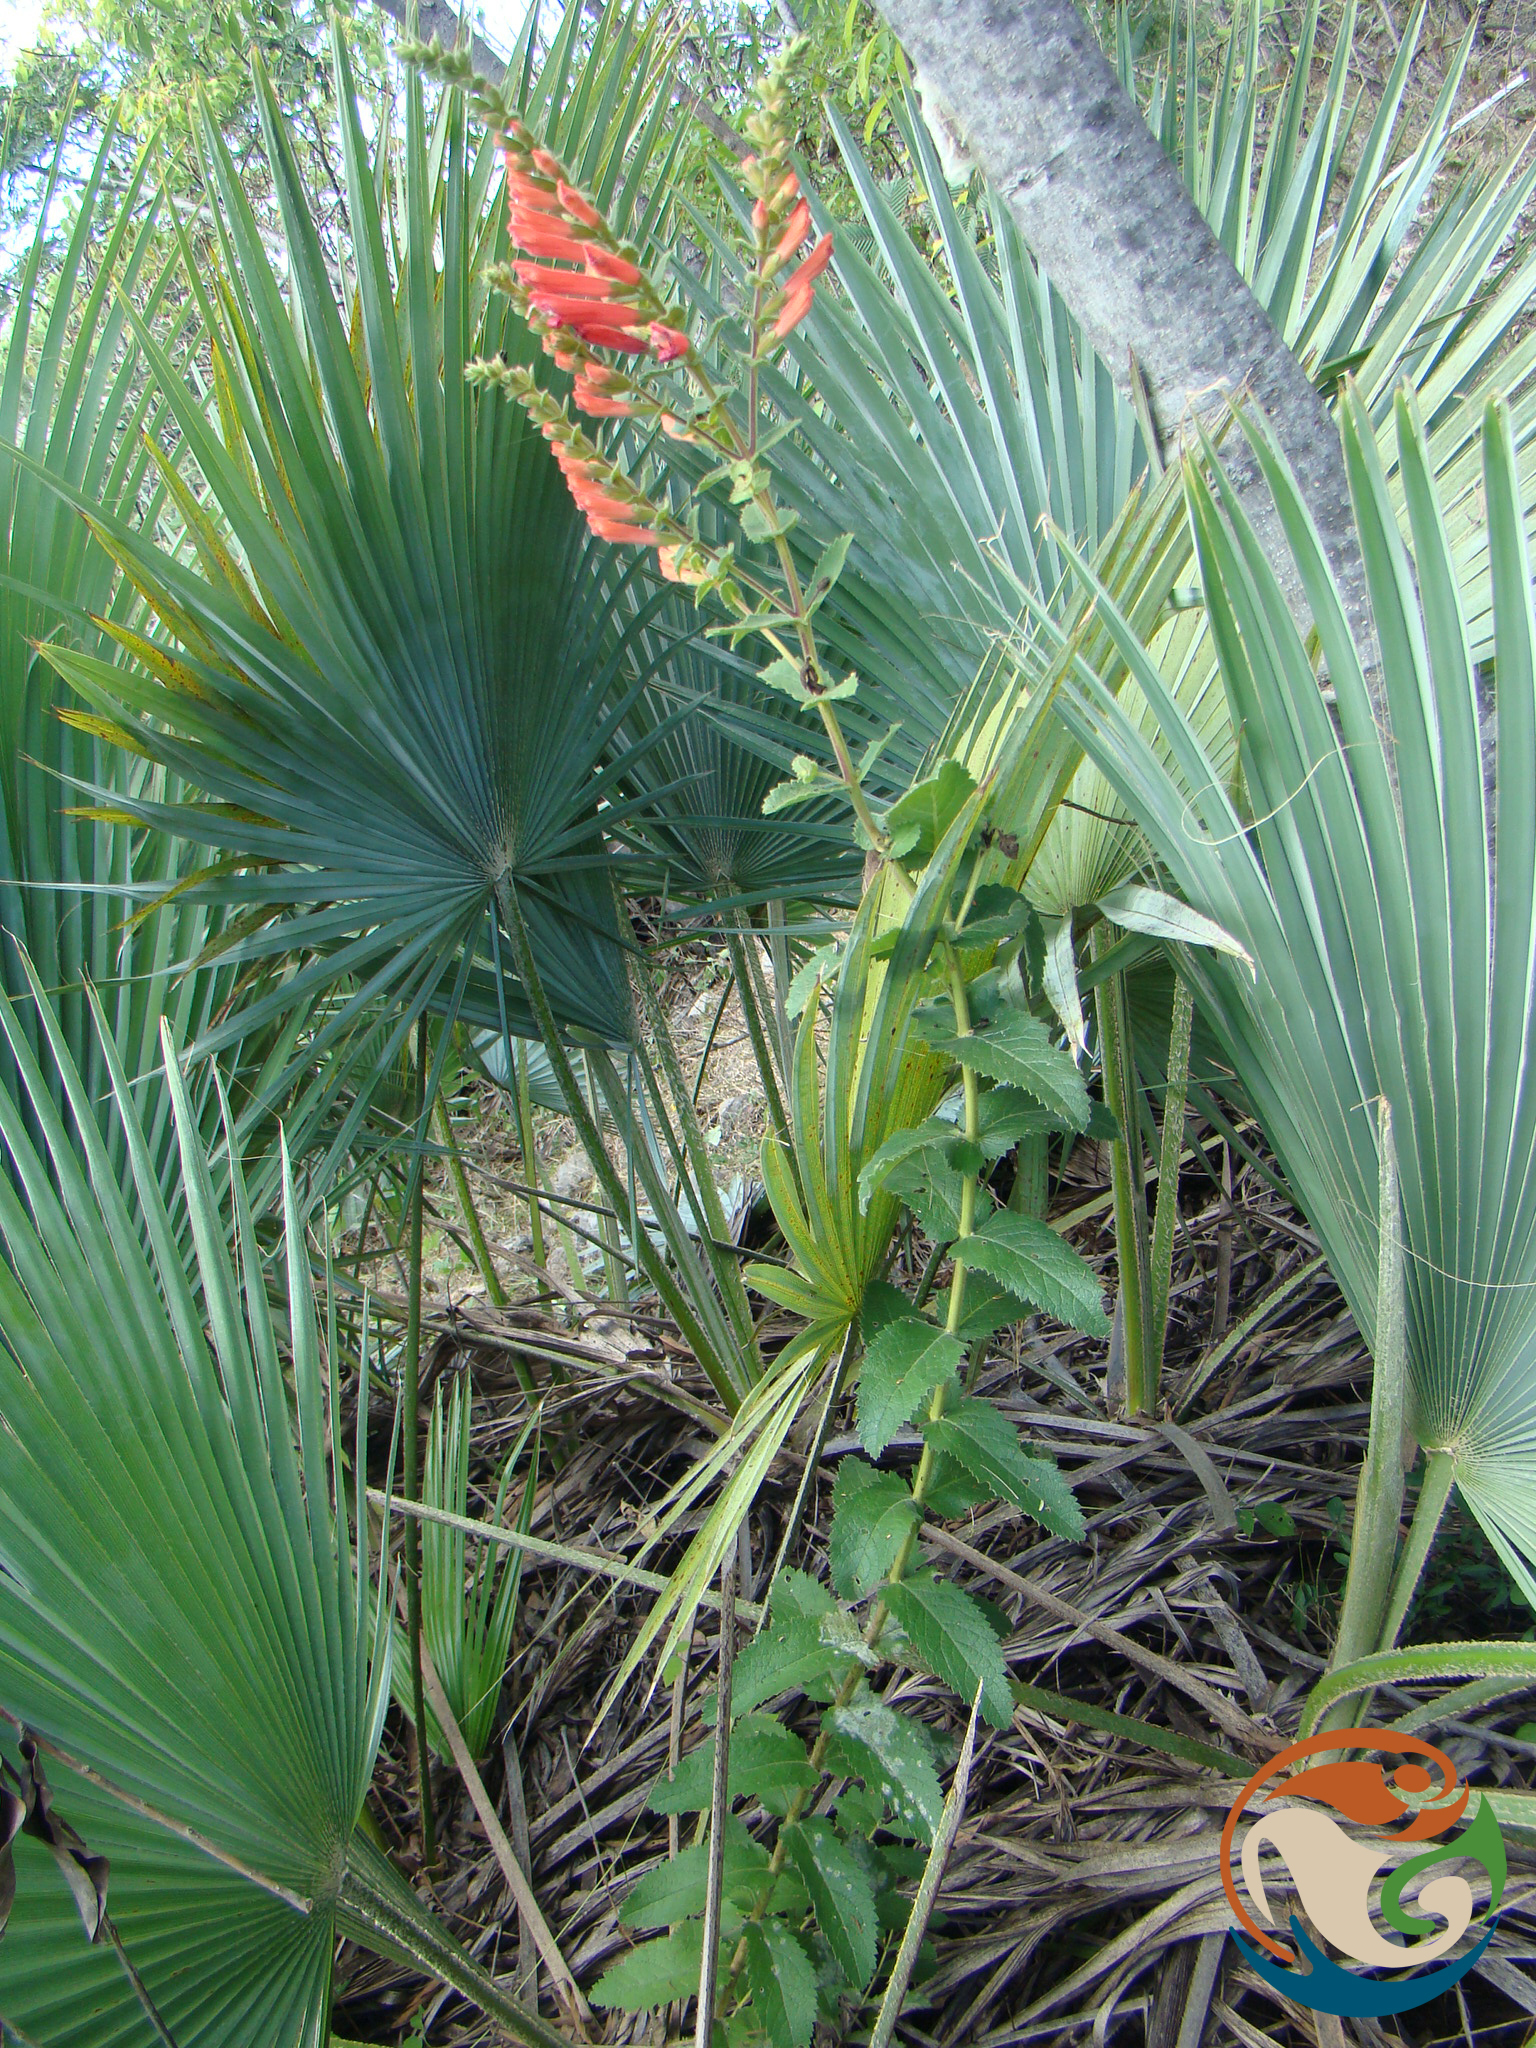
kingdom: Plantae
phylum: Tracheophyta
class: Magnoliopsida
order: Lamiales
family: Orobanchaceae
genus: Lamourouxia
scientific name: Lamourouxia viscosa
